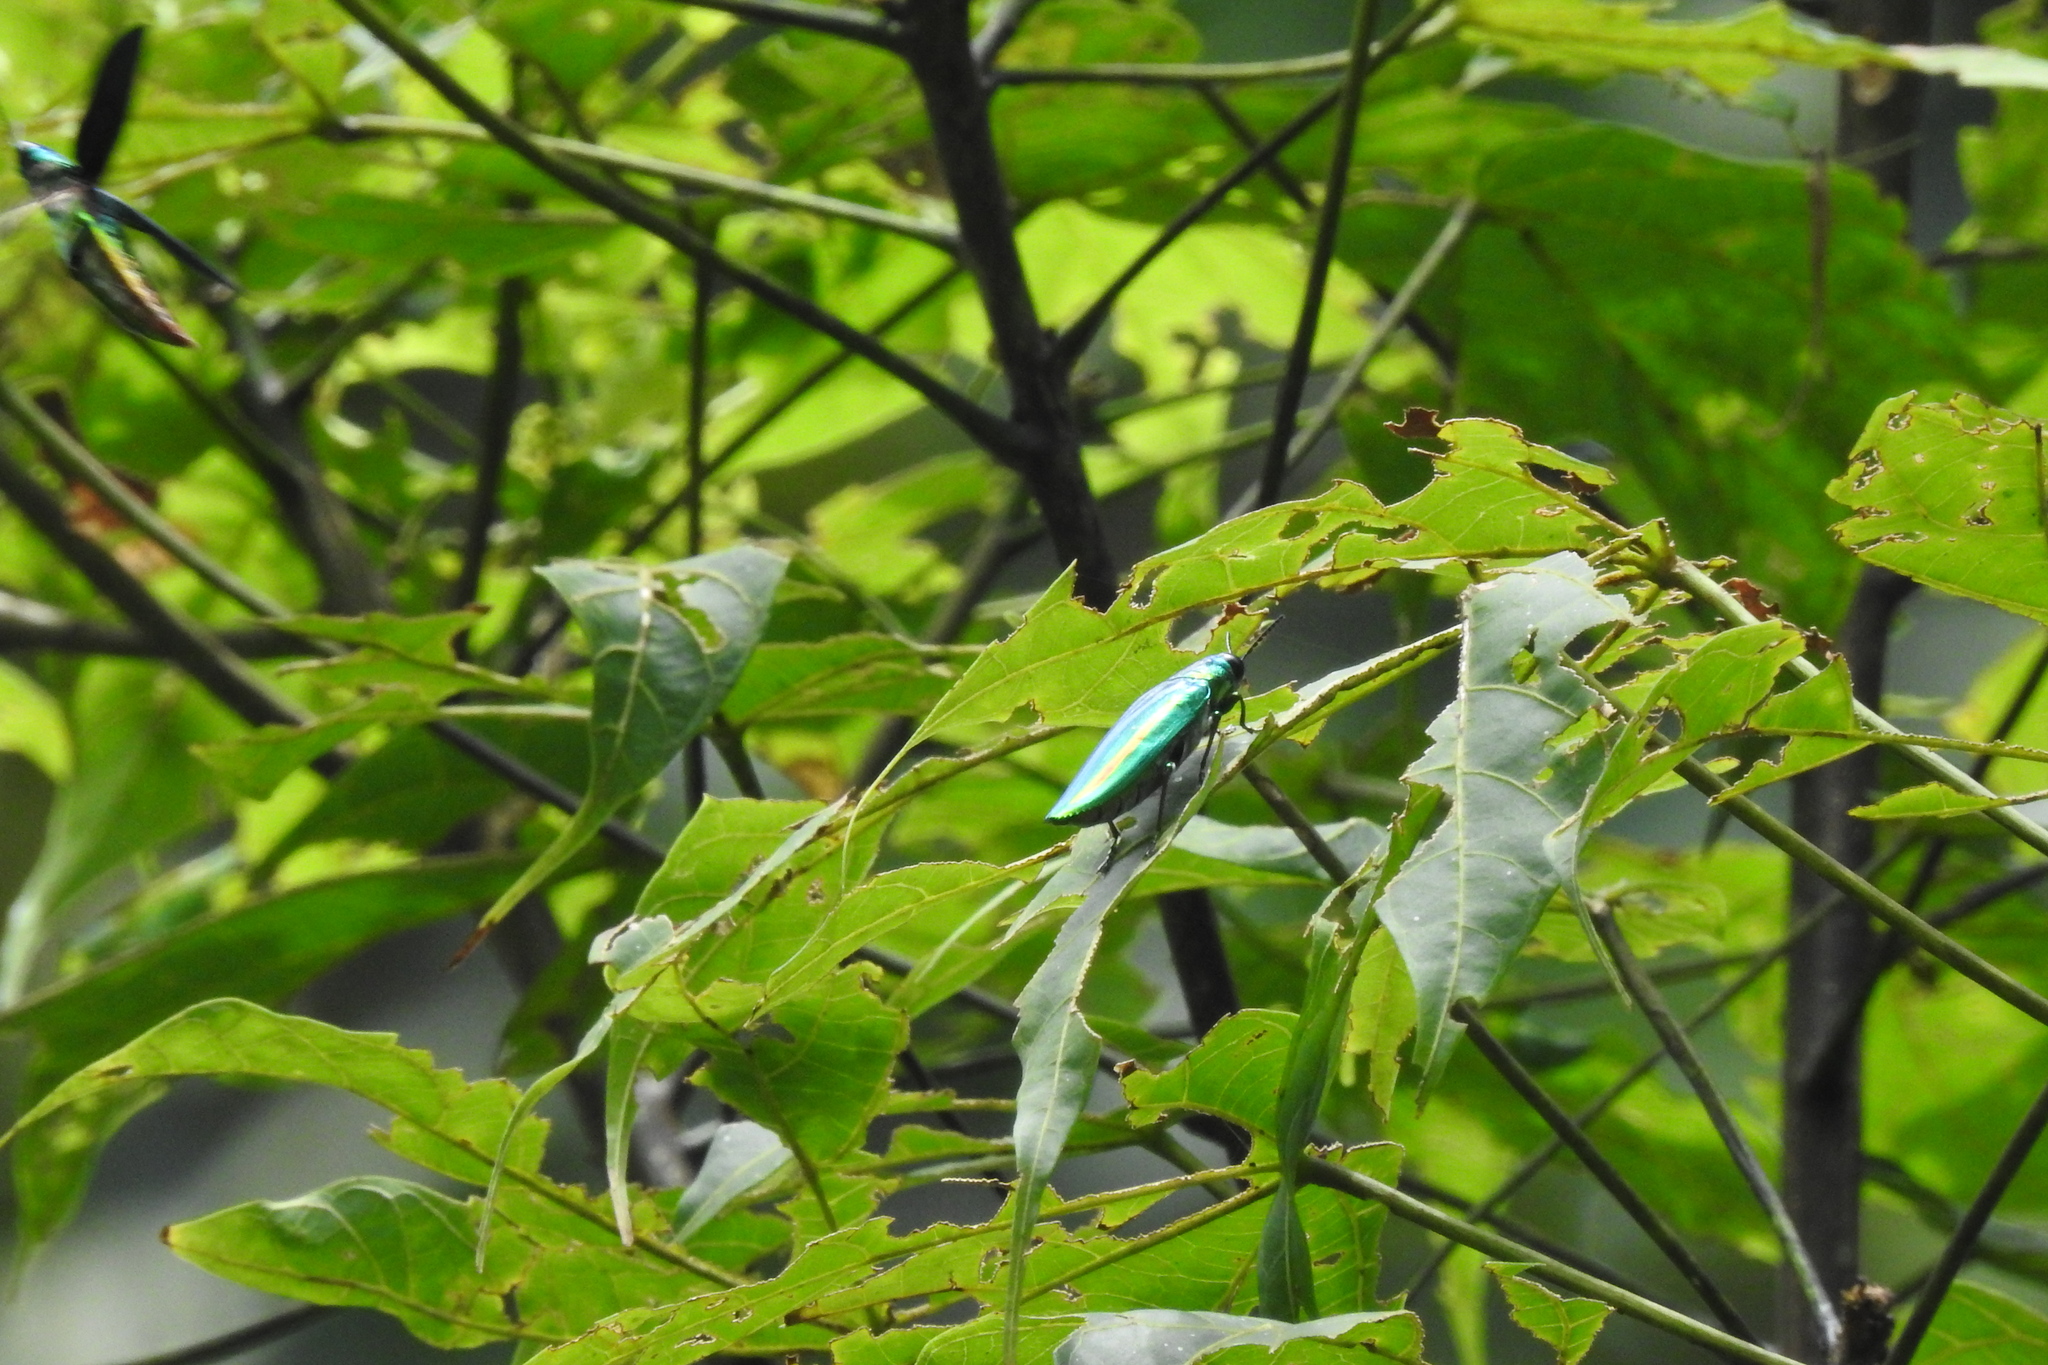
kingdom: Animalia
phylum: Arthropoda
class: Insecta
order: Coleoptera
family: Buprestidae
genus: Chrysochroa
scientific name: Chrysochroa rajah
